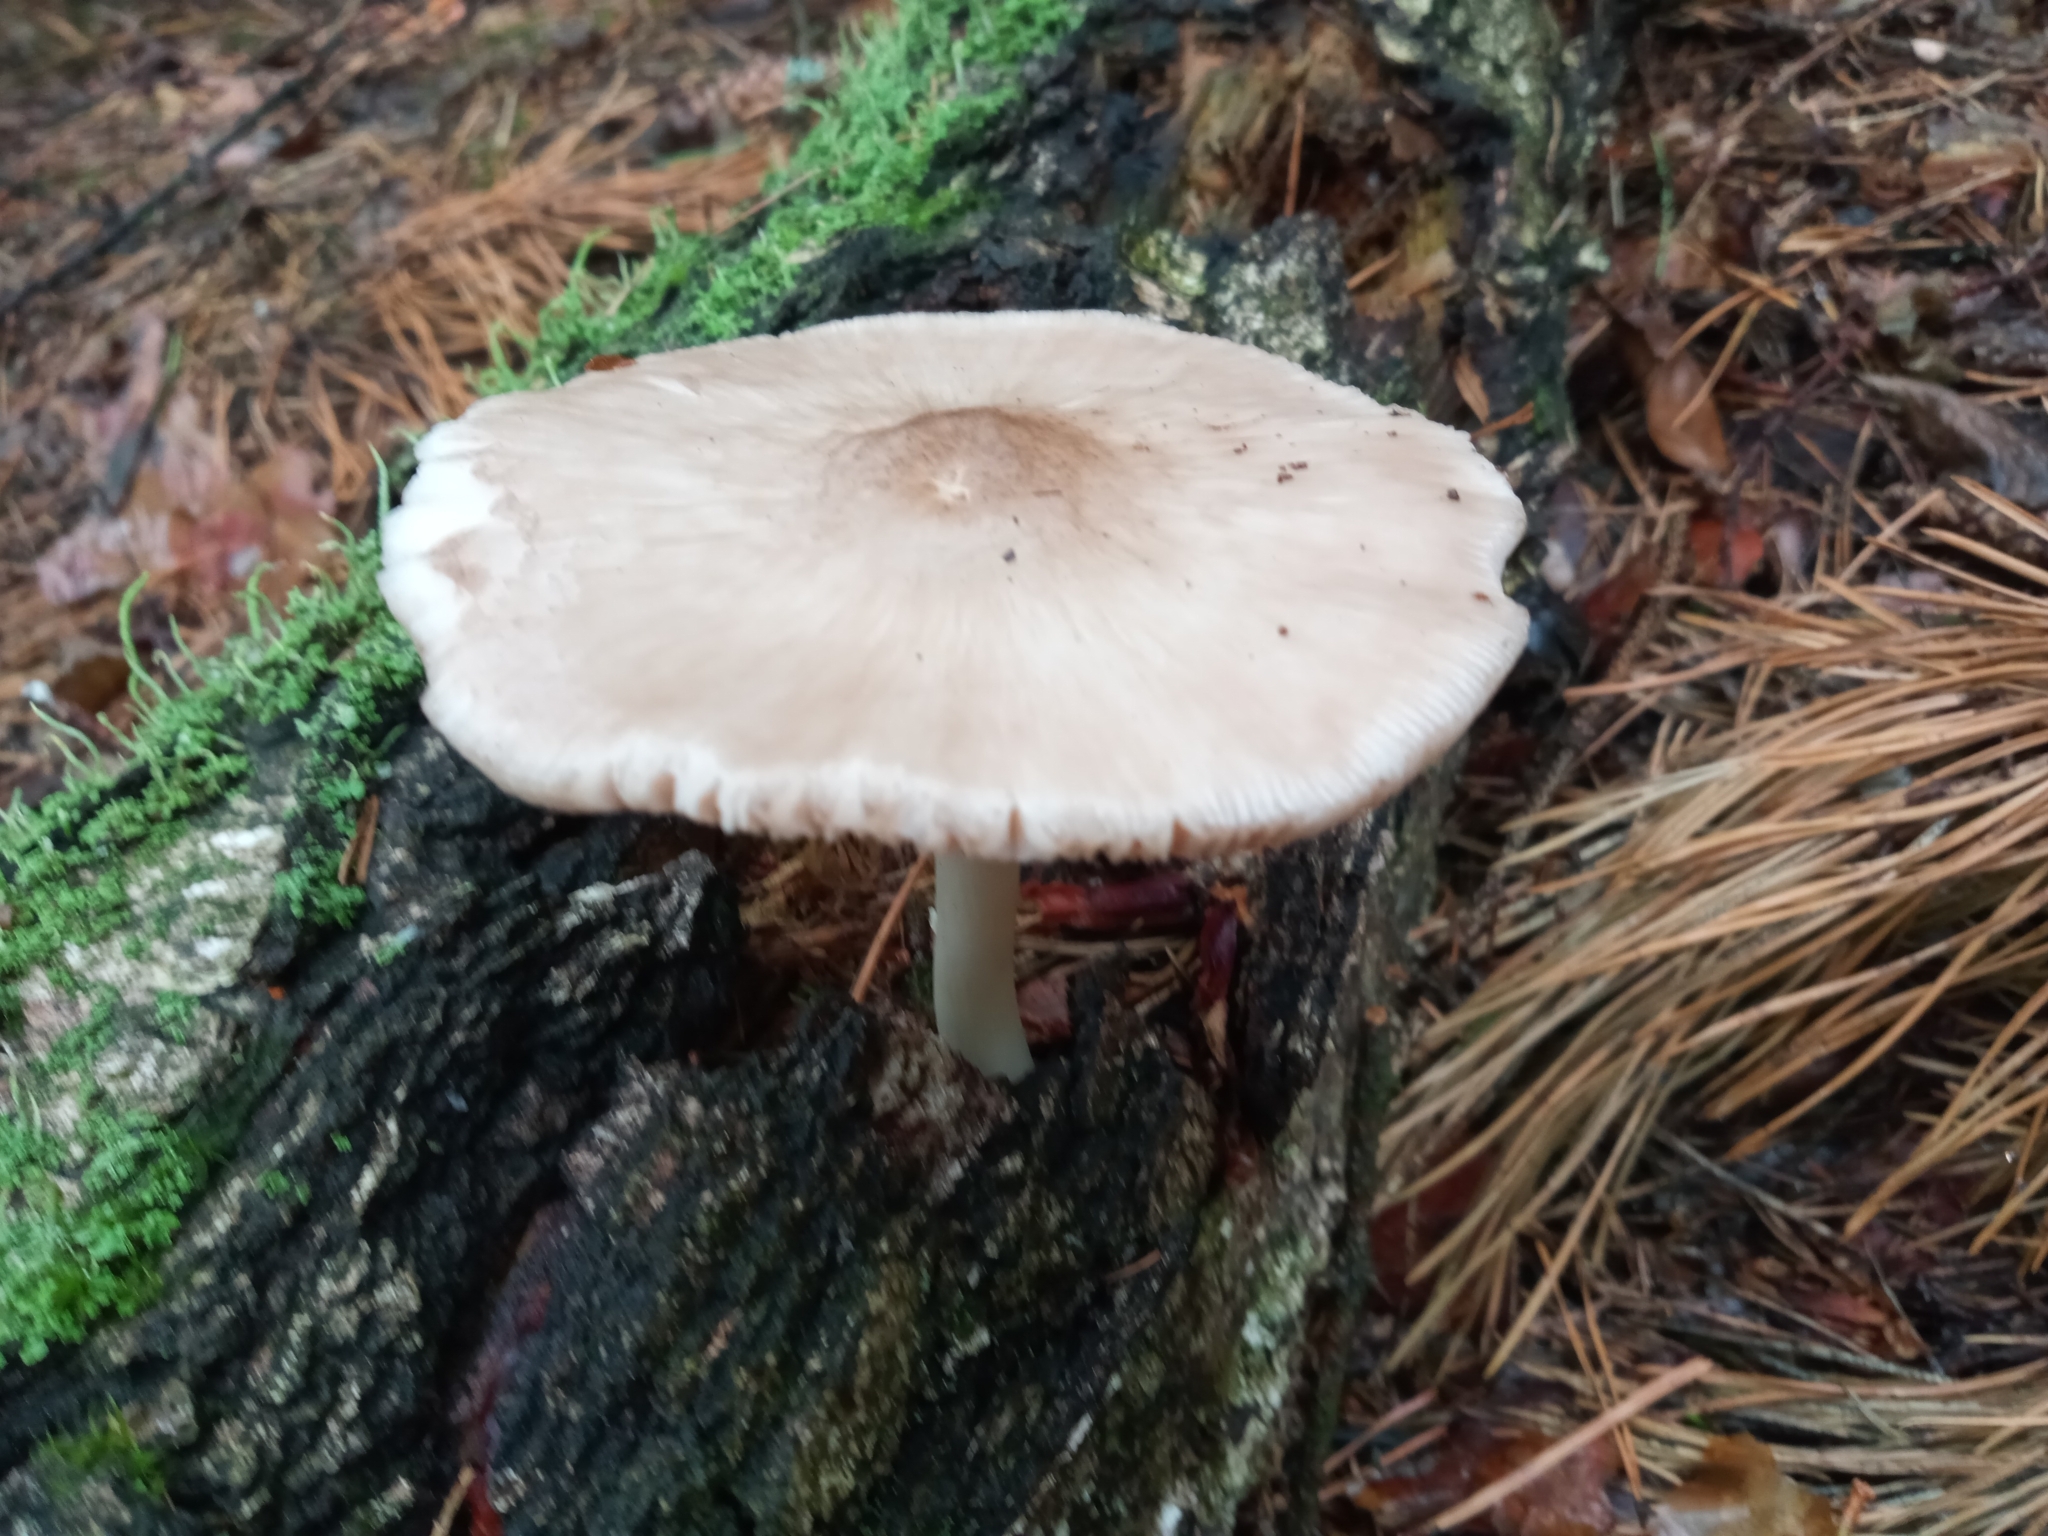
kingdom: Fungi
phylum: Basidiomycota
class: Agaricomycetes
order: Agaricales
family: Pluteaceae
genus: Pluteus
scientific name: Pluteus cervinus
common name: Deer shield
